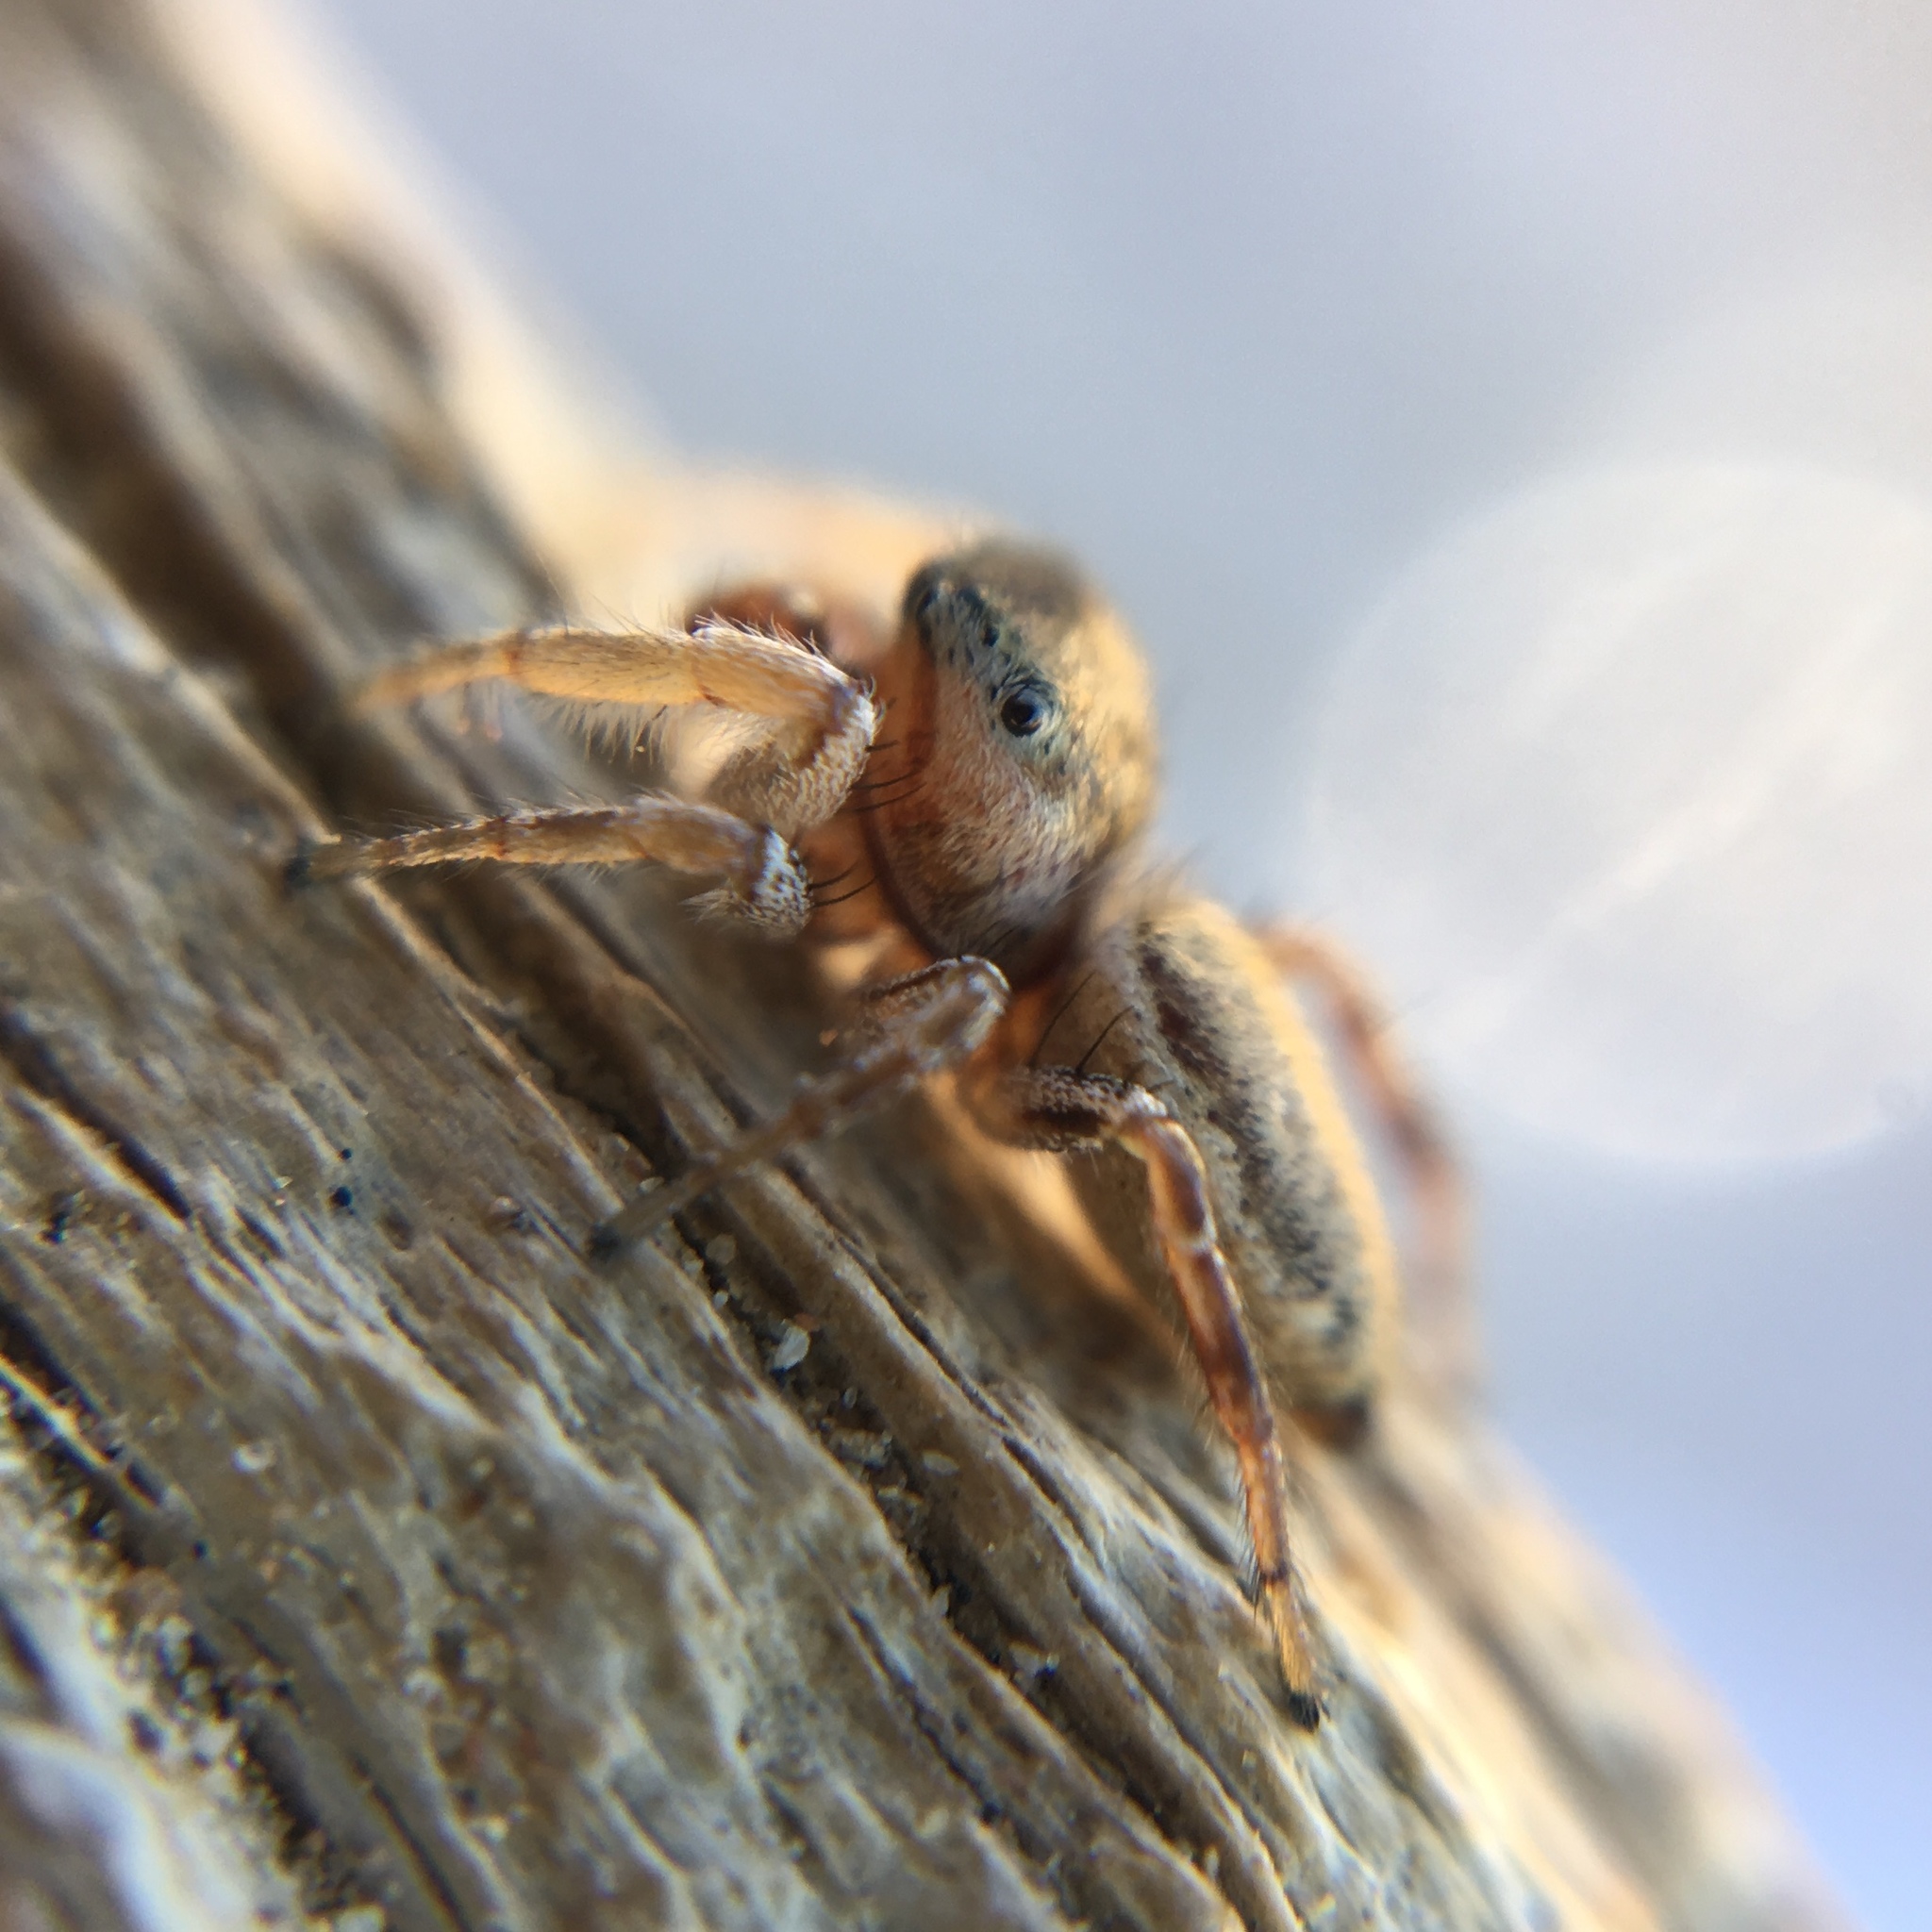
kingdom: Animalia
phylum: Arthropoda
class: Arachnida
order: Araneae
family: Salticidae
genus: Pelegrina
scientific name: Pelegrina flaviceps
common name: Big-headed white-cheeked jumping spider
